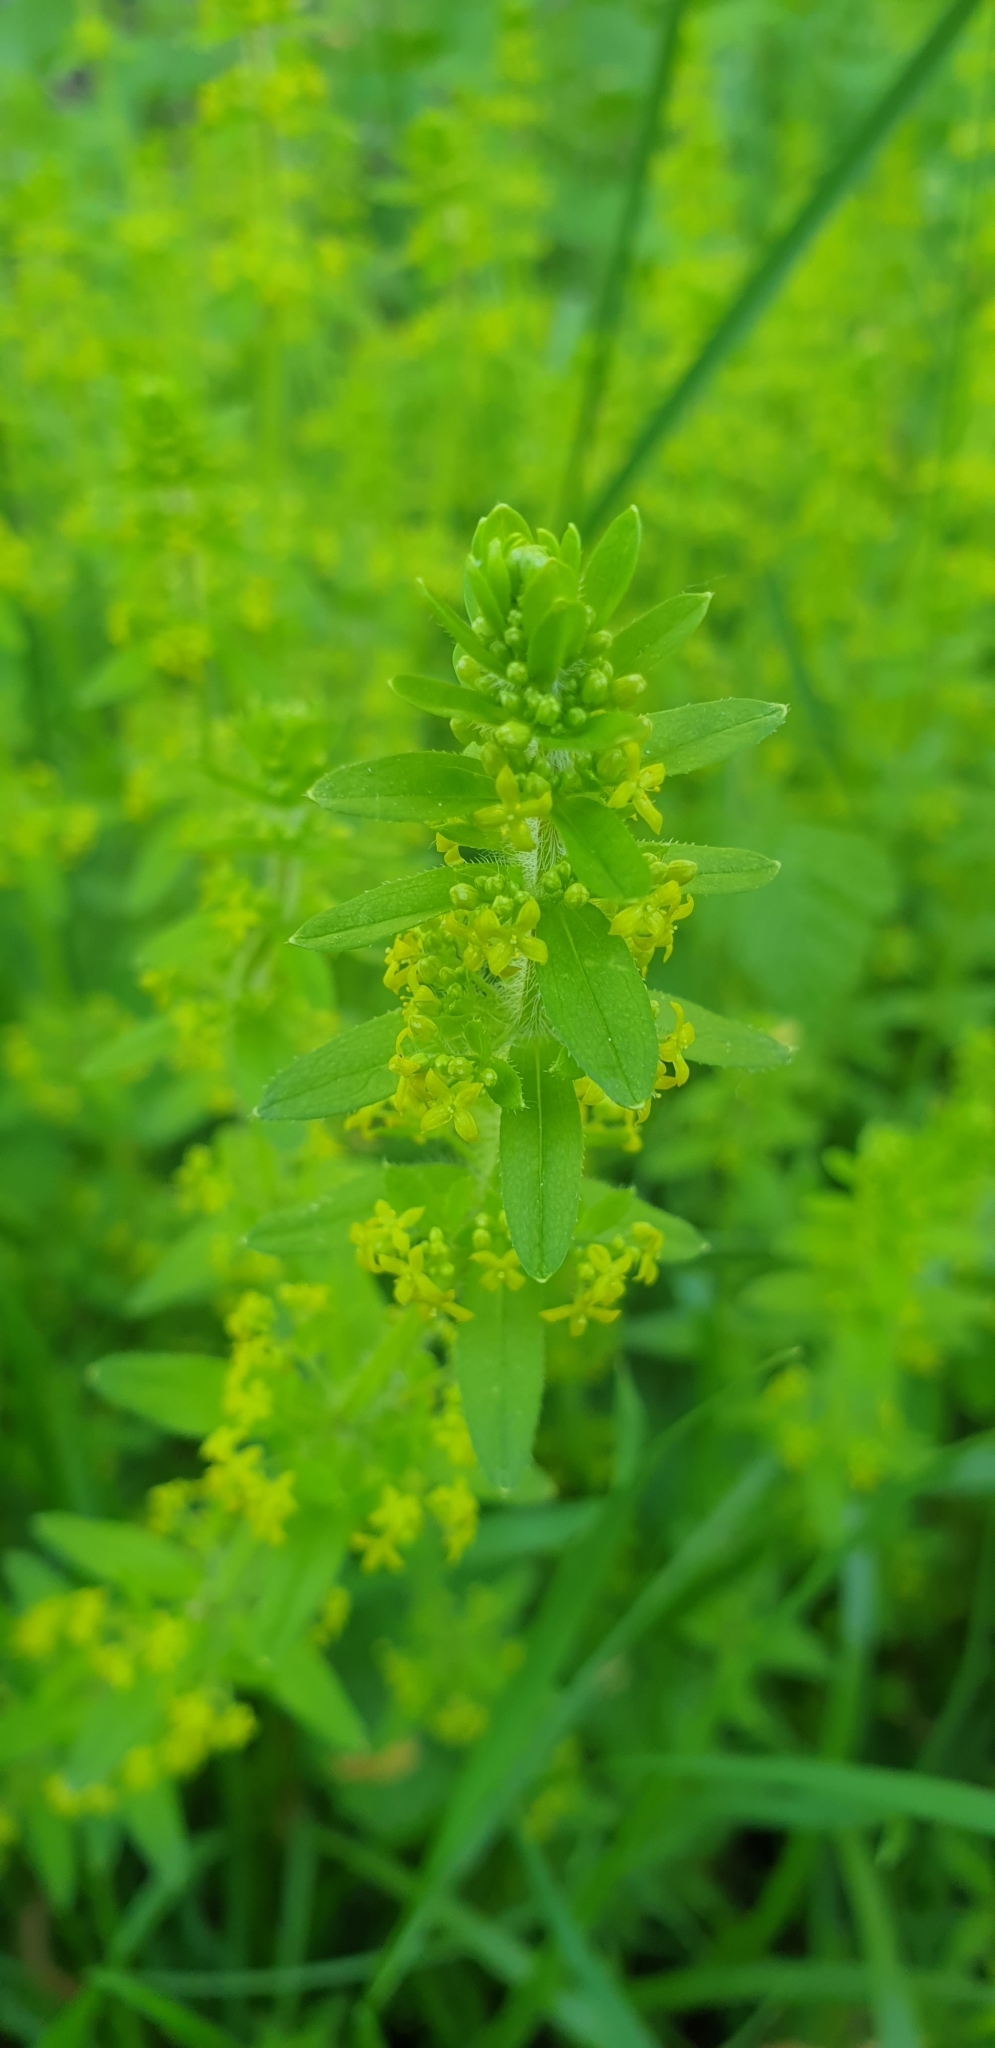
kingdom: Plantae
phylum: Tracheophyta
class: Magnoliopsida
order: Gentianales
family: Rubiaceae
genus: Cruciata
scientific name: Cruciata laevipes
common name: Crosswort
